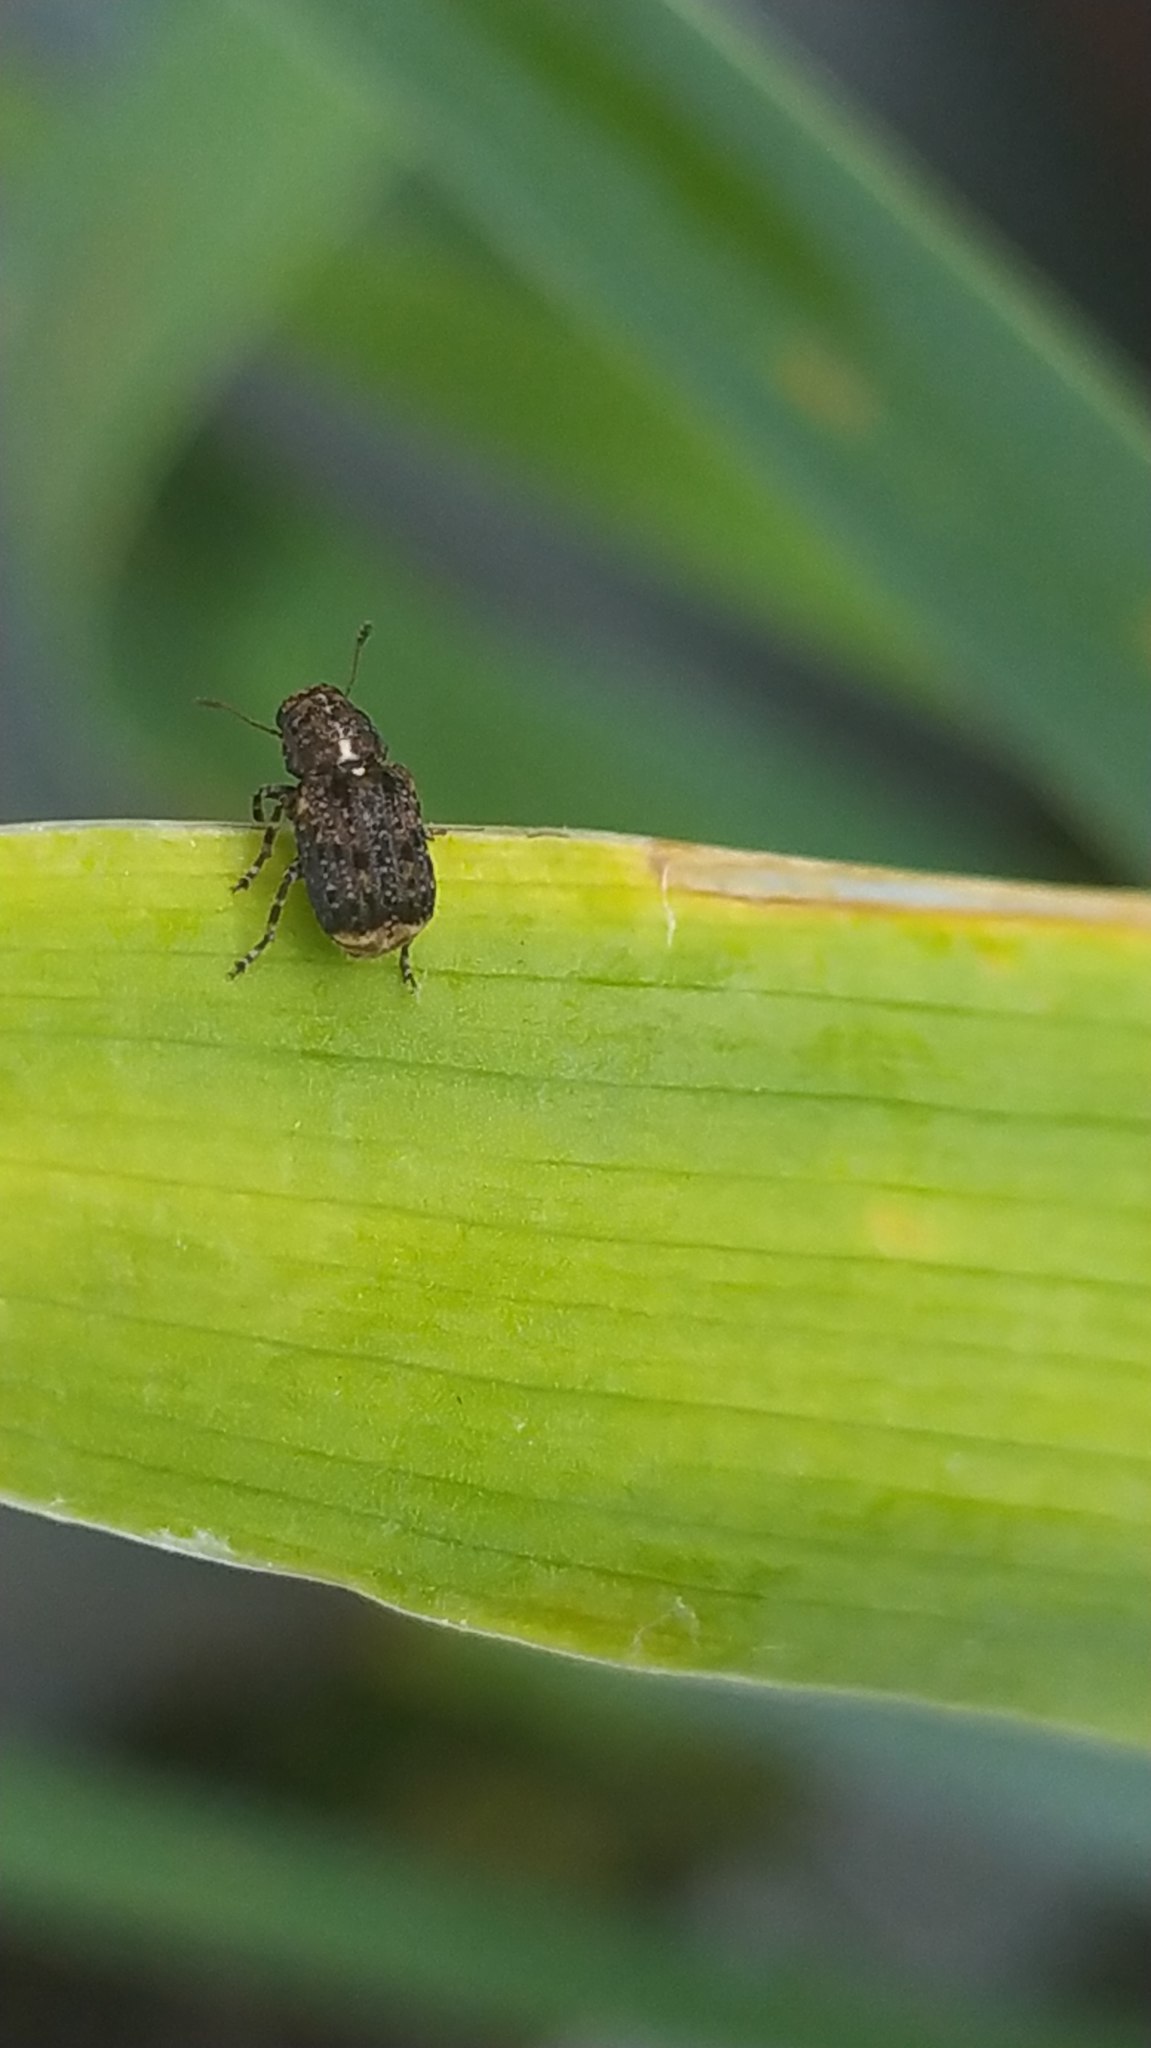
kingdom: Animalia
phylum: Arthropoda
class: Insecta
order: Coleoptera
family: Anthribidae
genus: Dissoleucas
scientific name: Dissoleucas niveirostris
